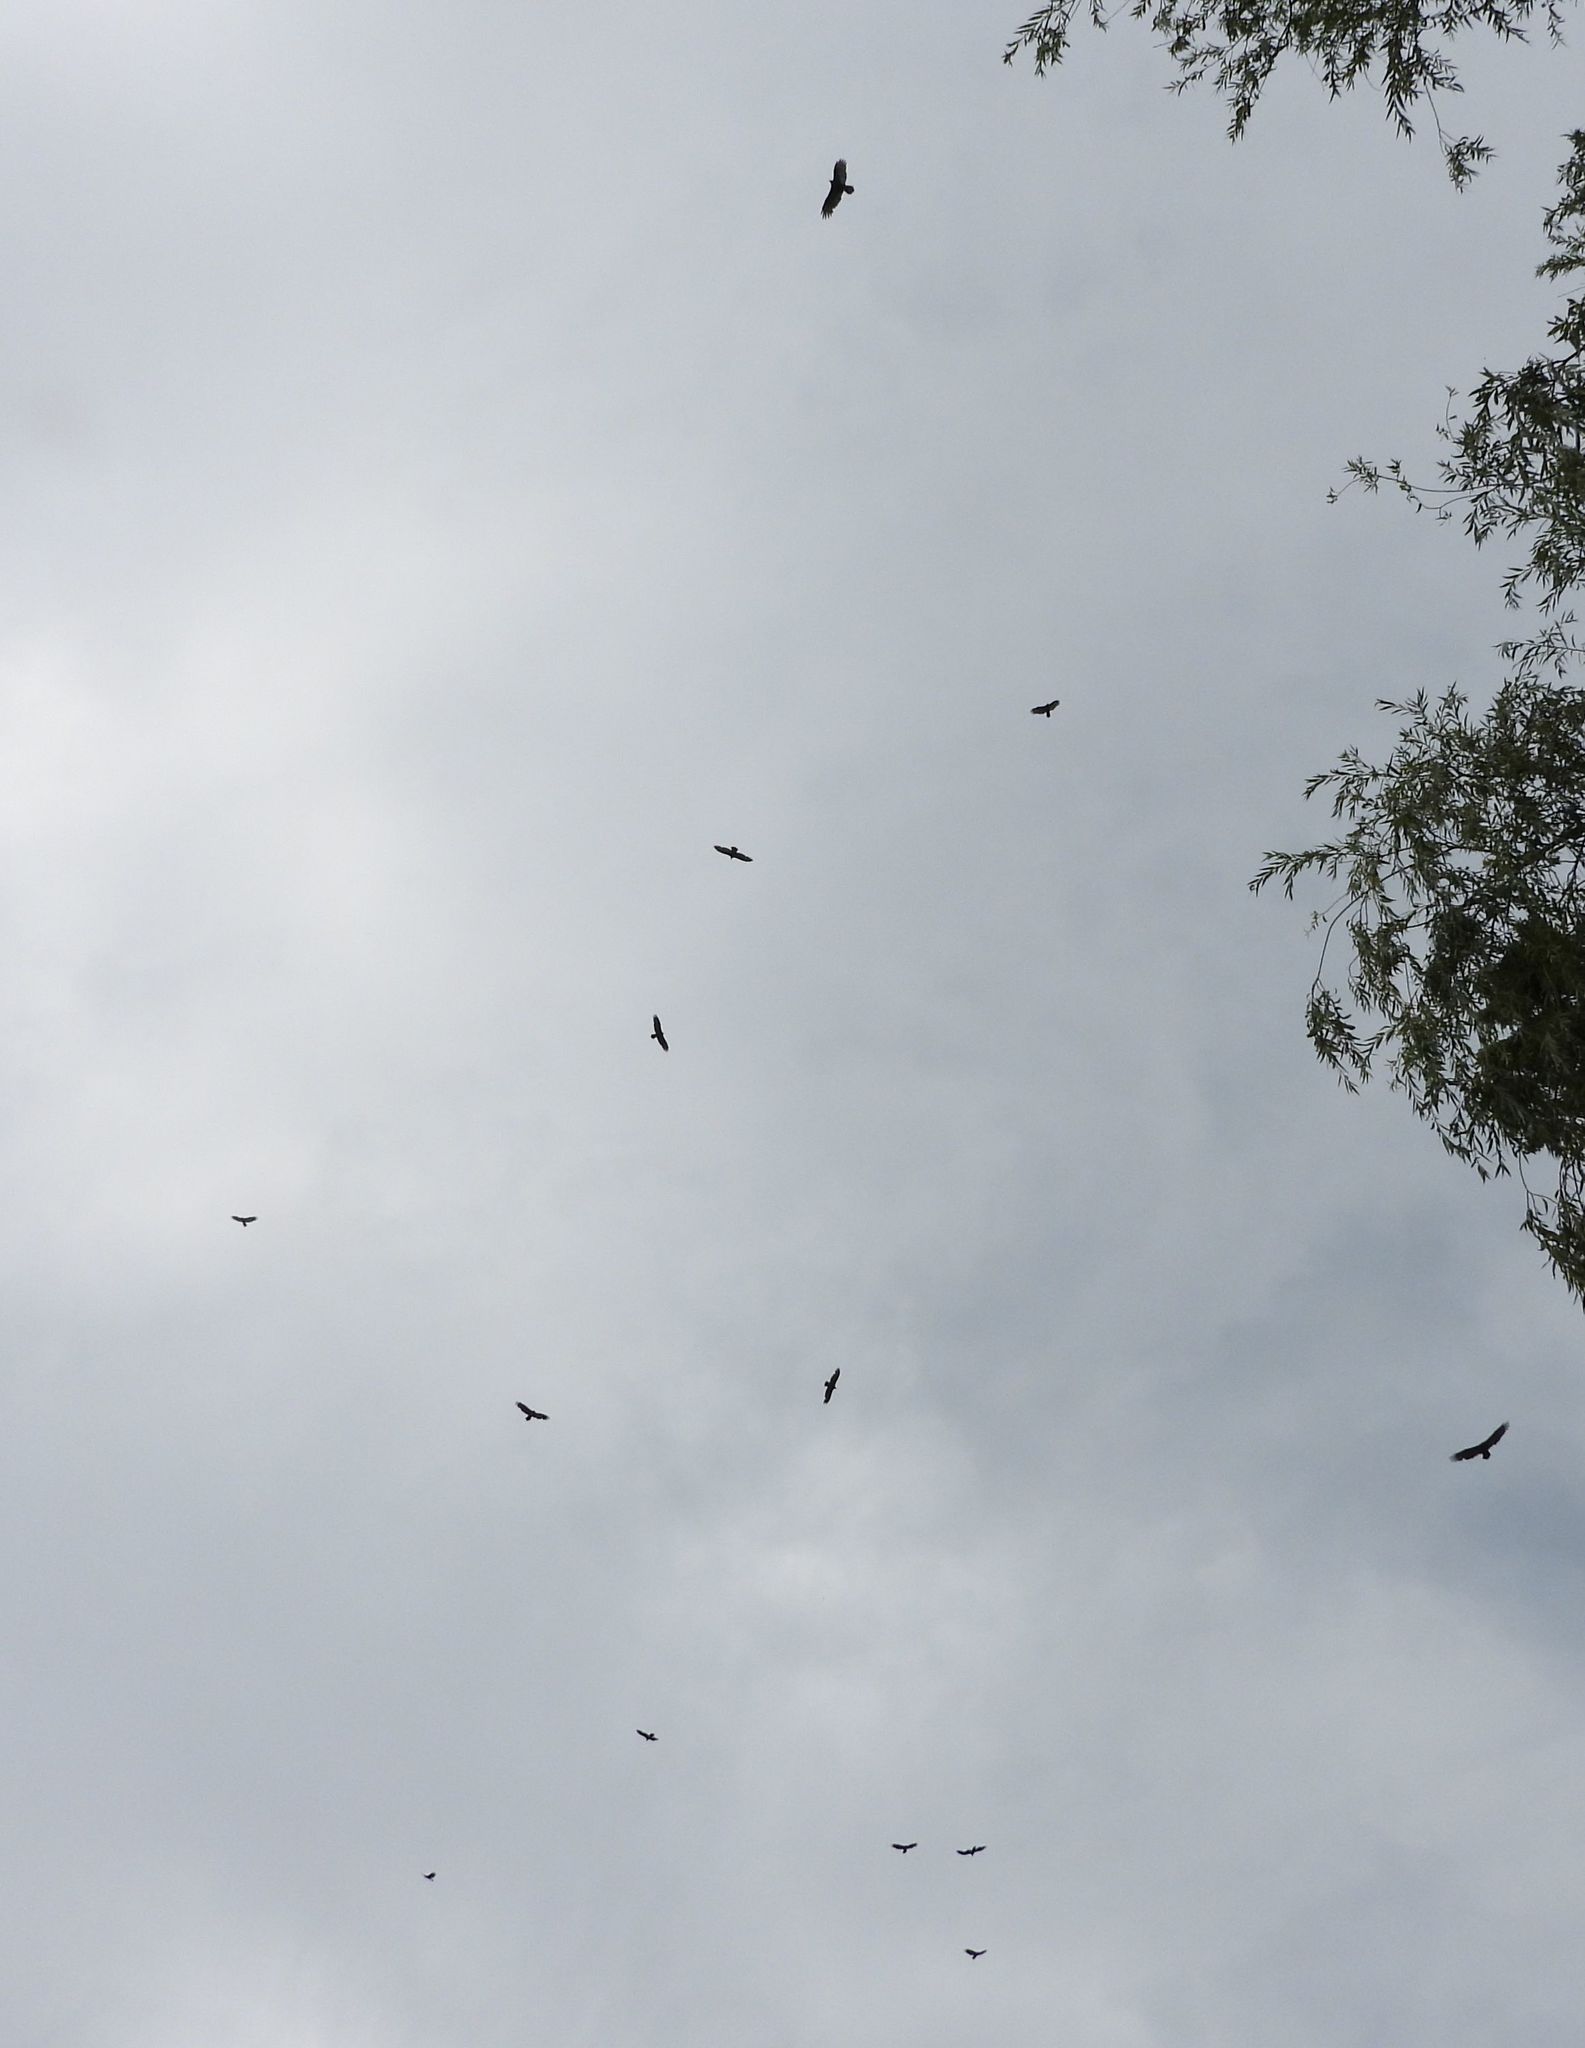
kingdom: Animalia
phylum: Chordata
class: Aves
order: Accipitriformes
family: Cathartidae
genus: Cathartes
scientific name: Cathartes aura
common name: Turkey vulture
